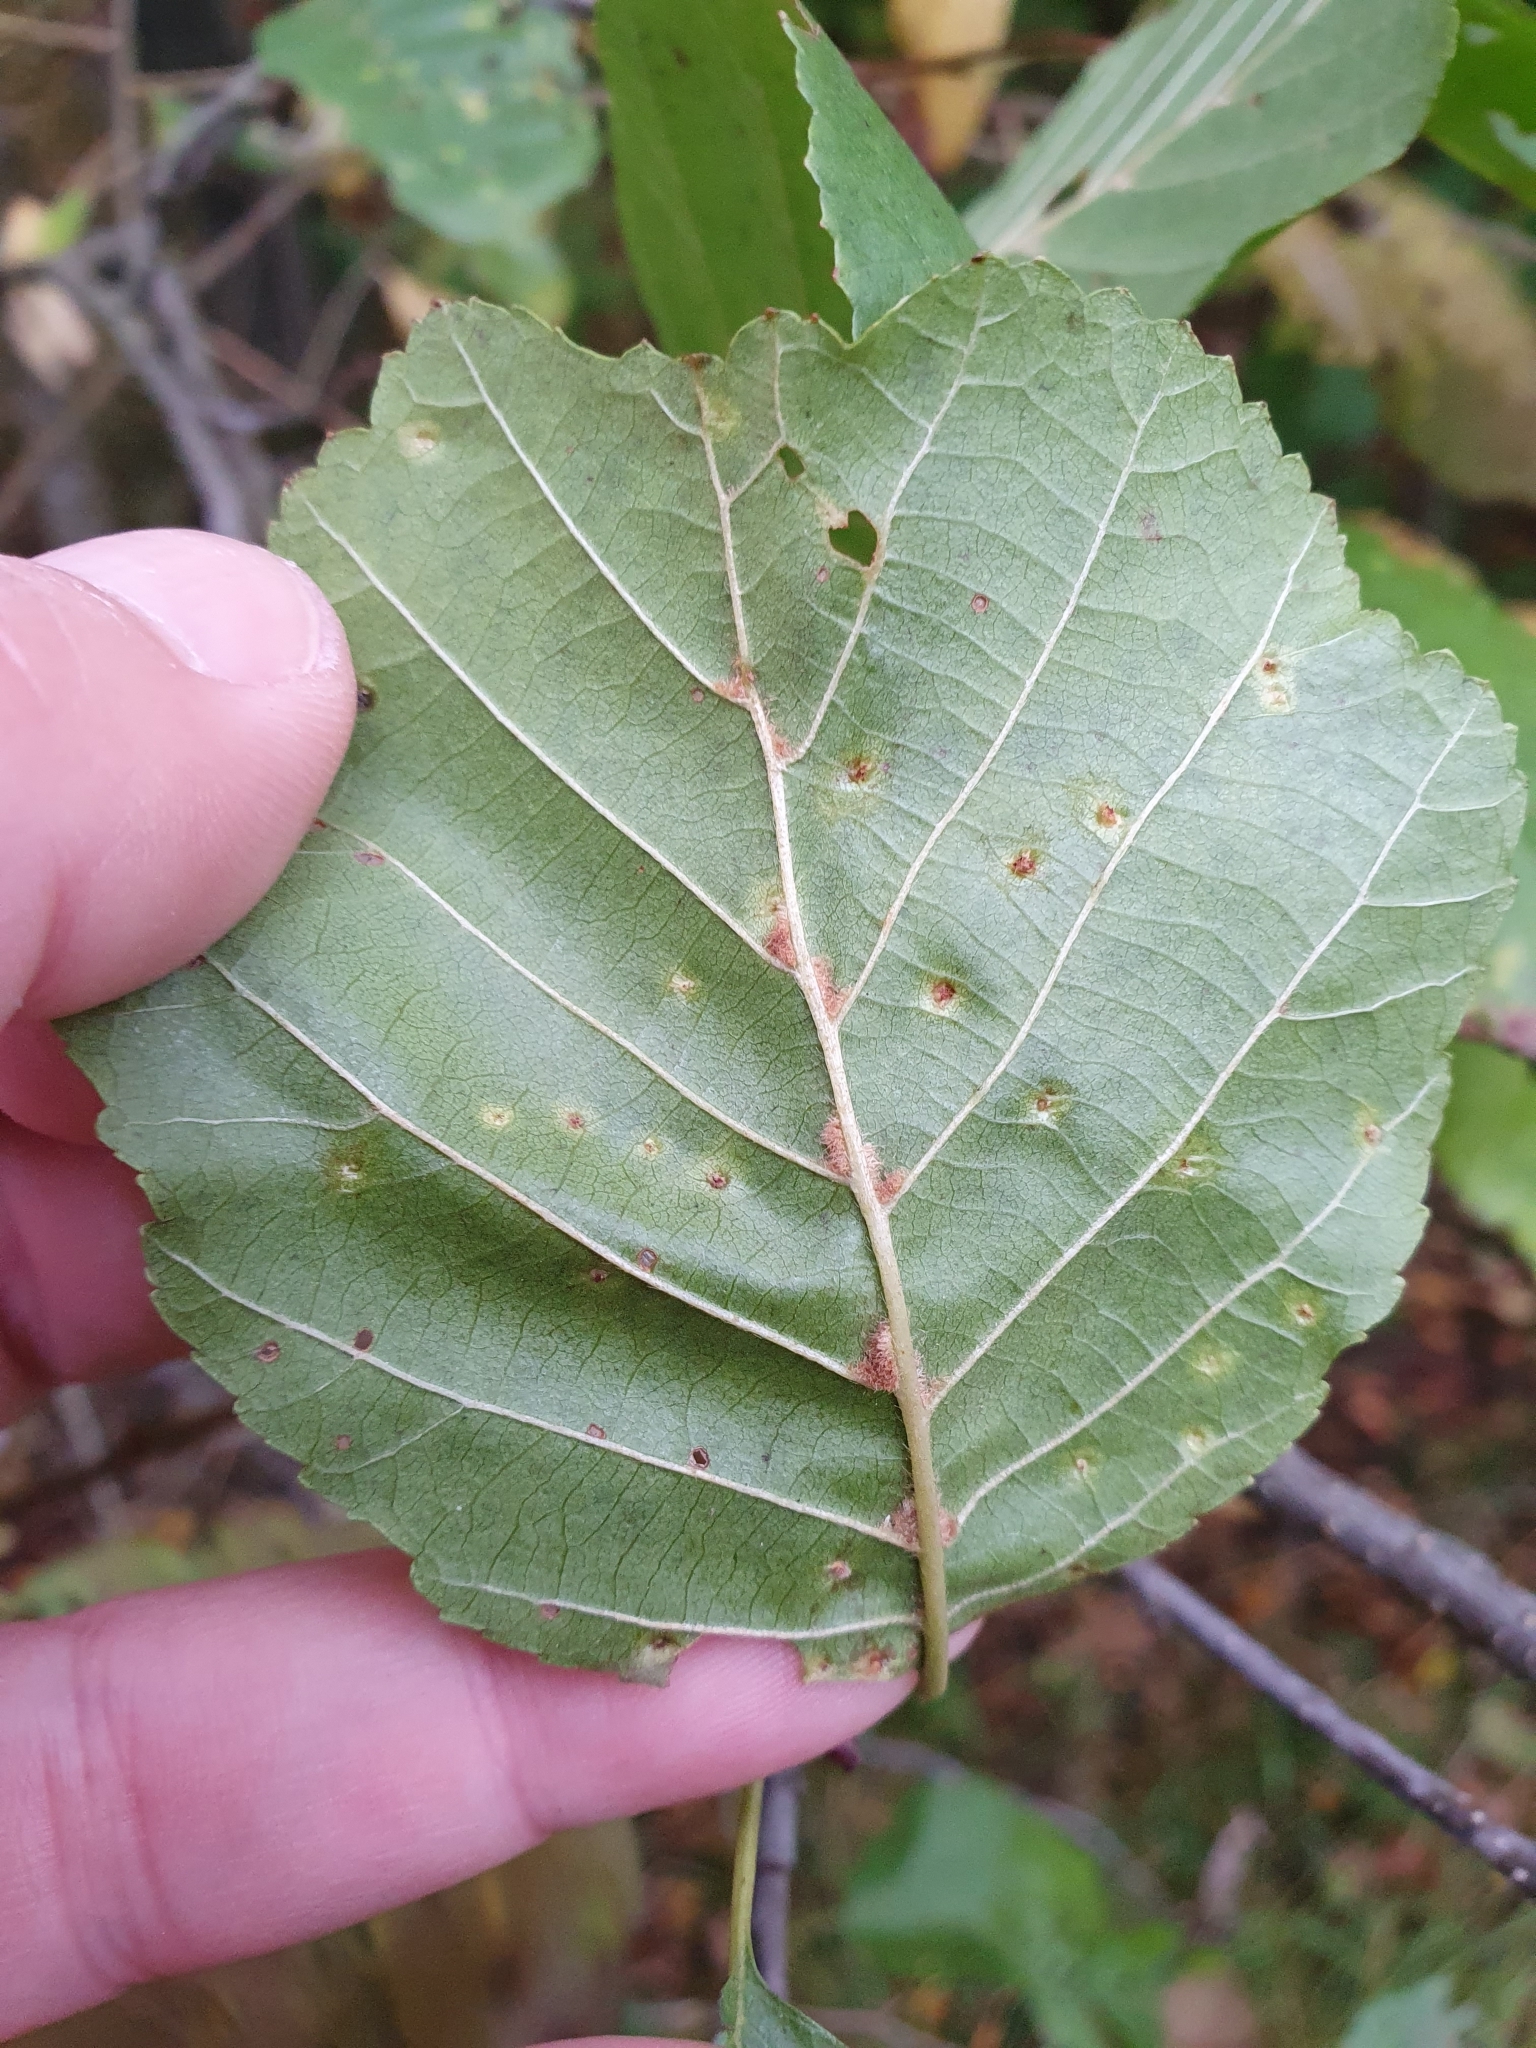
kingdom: Animalia
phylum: Arthropoda
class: Arachnida
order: Trombidiformes
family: Eriophyidae
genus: Eriophyes
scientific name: Eriophyes laevis
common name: Alder leaf gall mite
